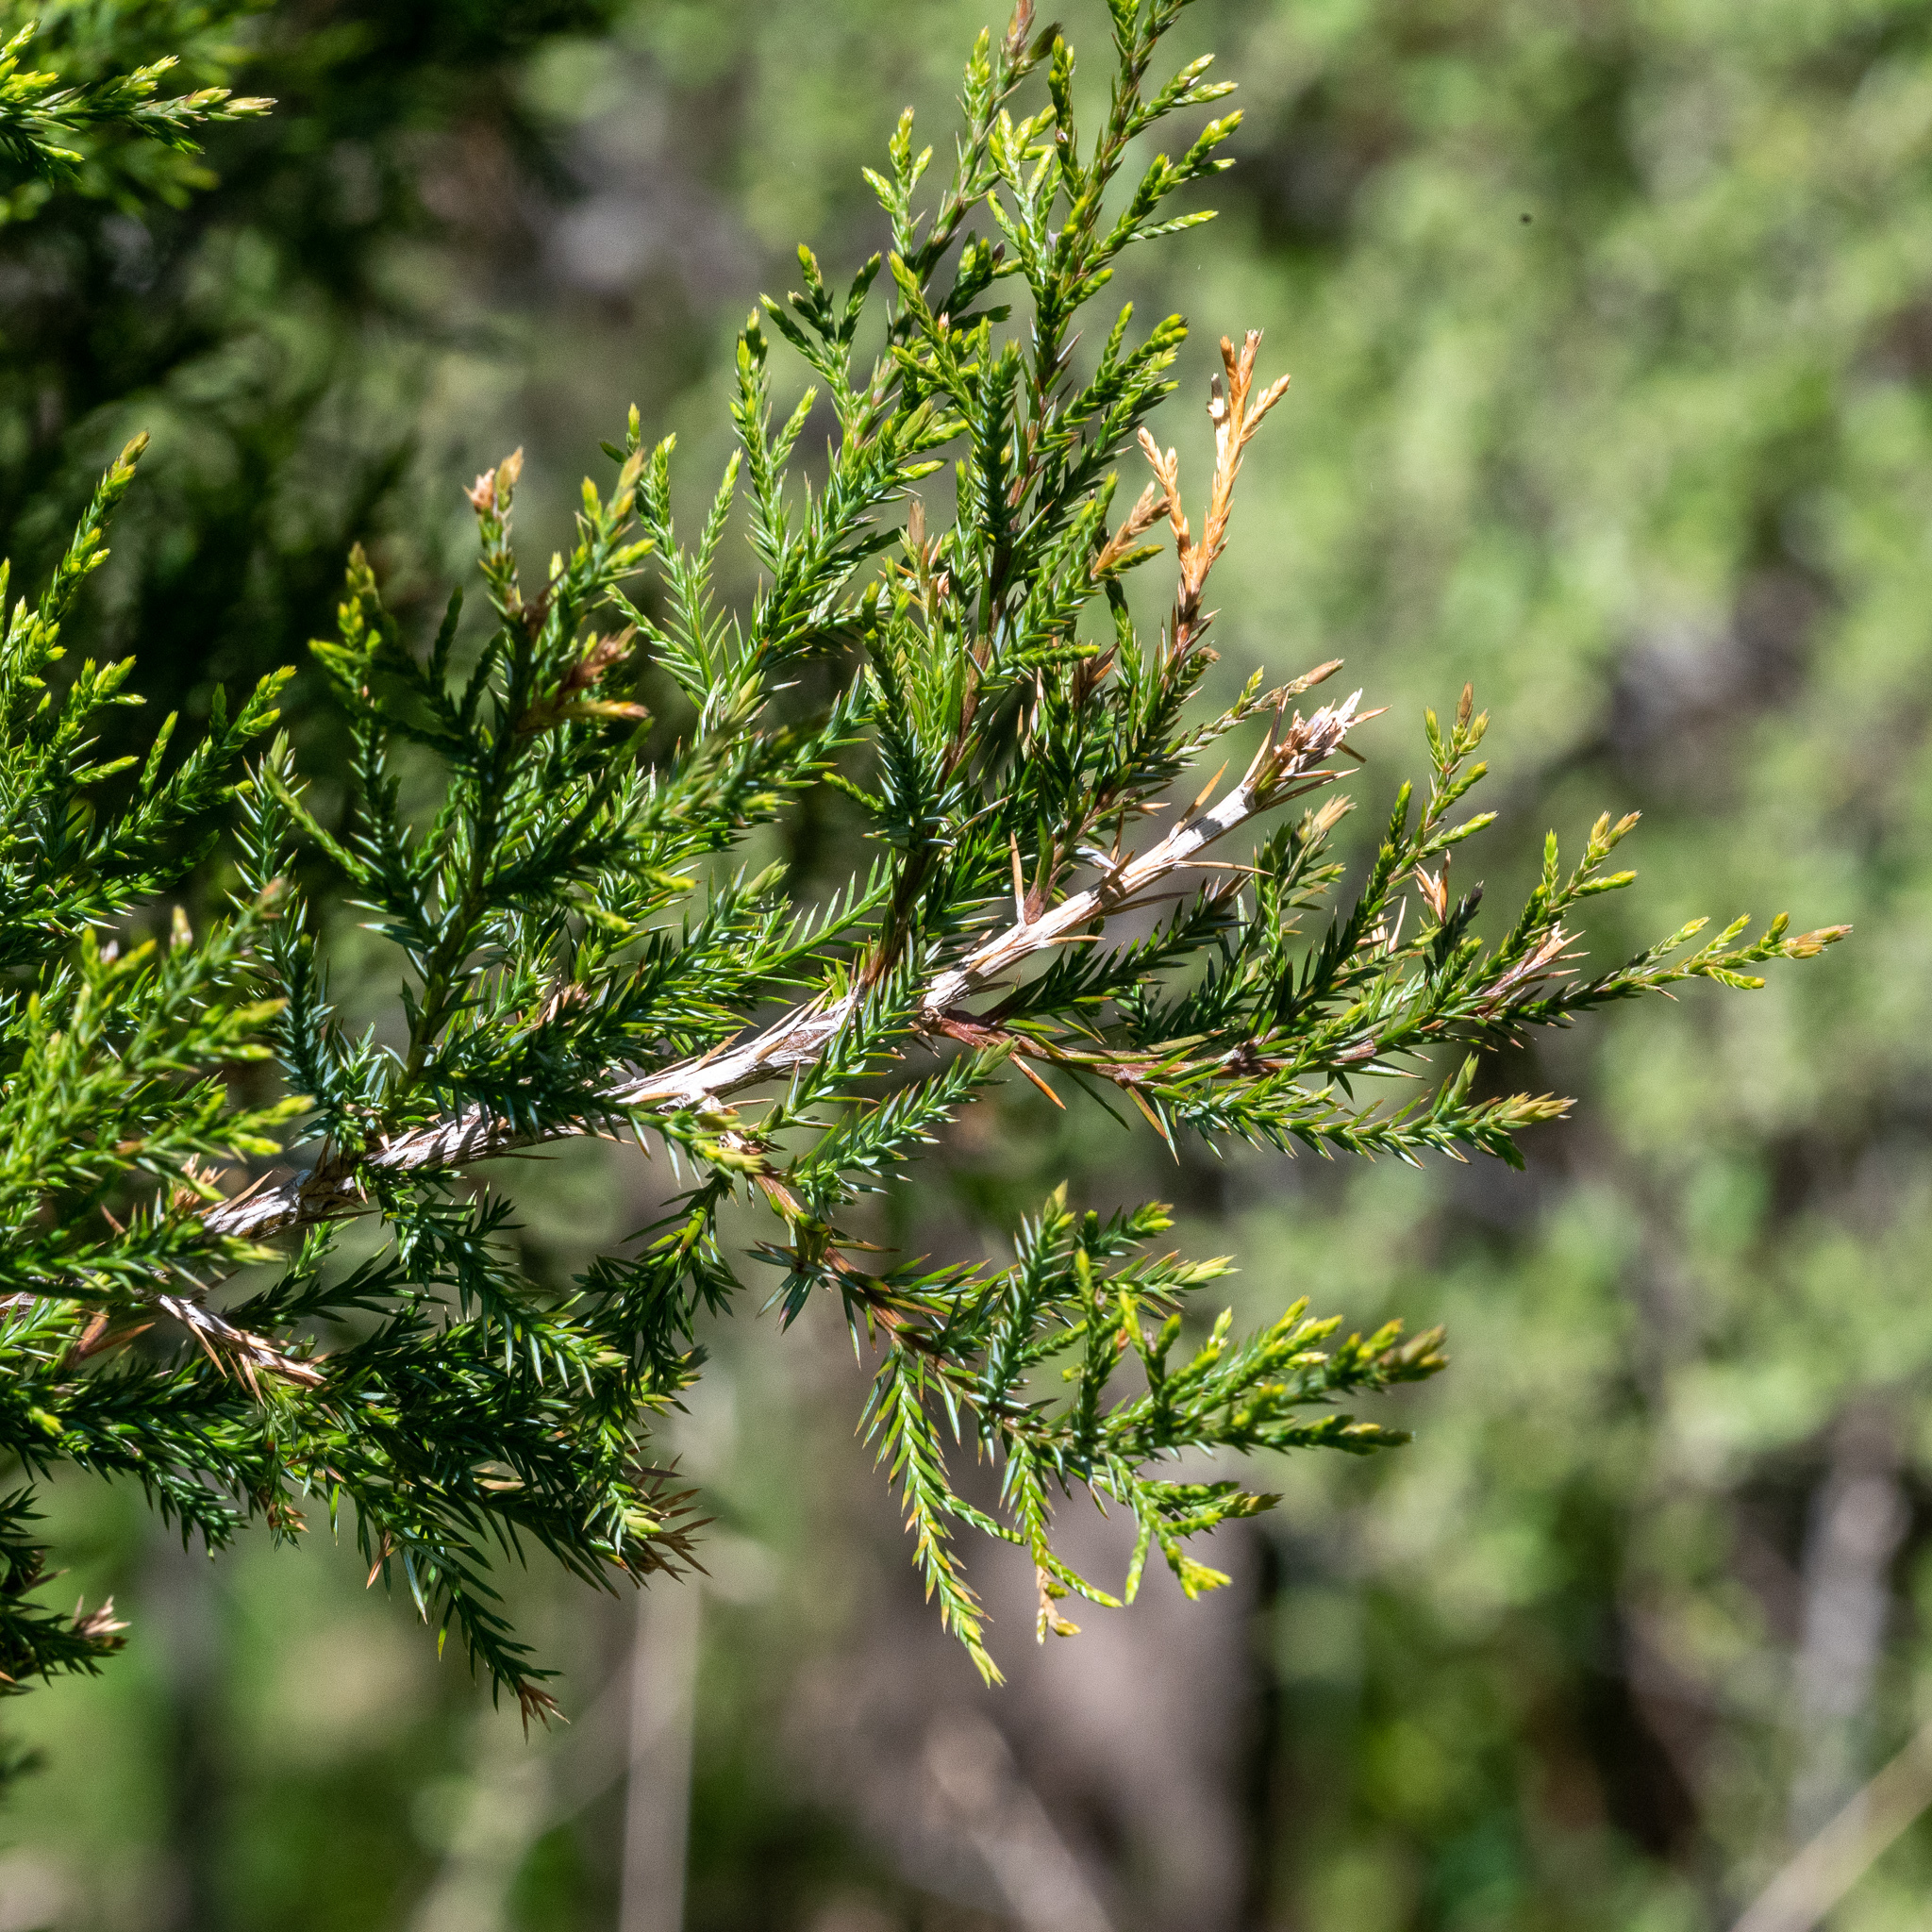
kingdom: Plantae
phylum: Tracheophyta
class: Pinopsida
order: Pinales
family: Cupressaceae
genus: Juniperus
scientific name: Juniperus virginiana
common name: Red juniper
